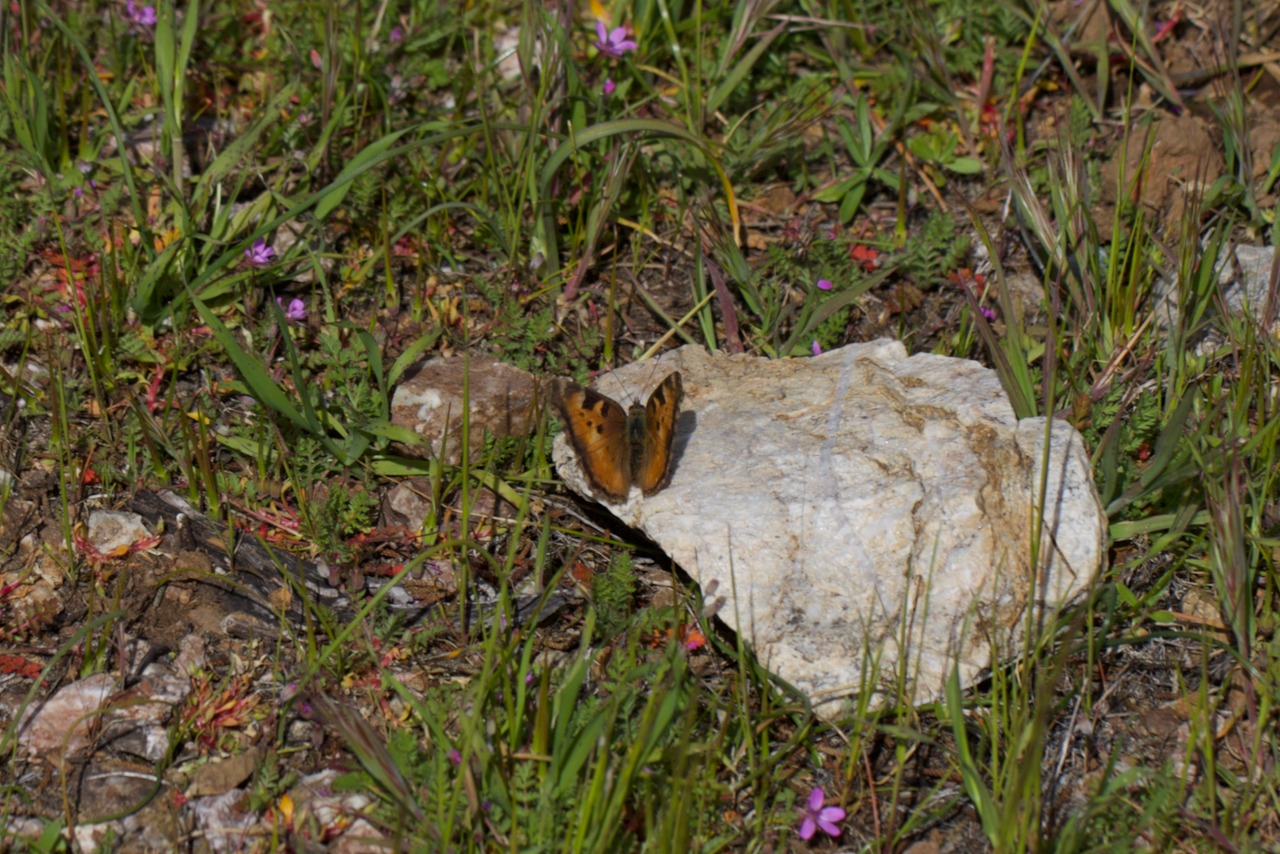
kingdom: Animalia
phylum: Arthropoda
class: Insecta
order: Lepidoptera
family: Nymphalidae
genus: Nymphalis
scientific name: Nymphalis californica
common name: California tortoiseshell
